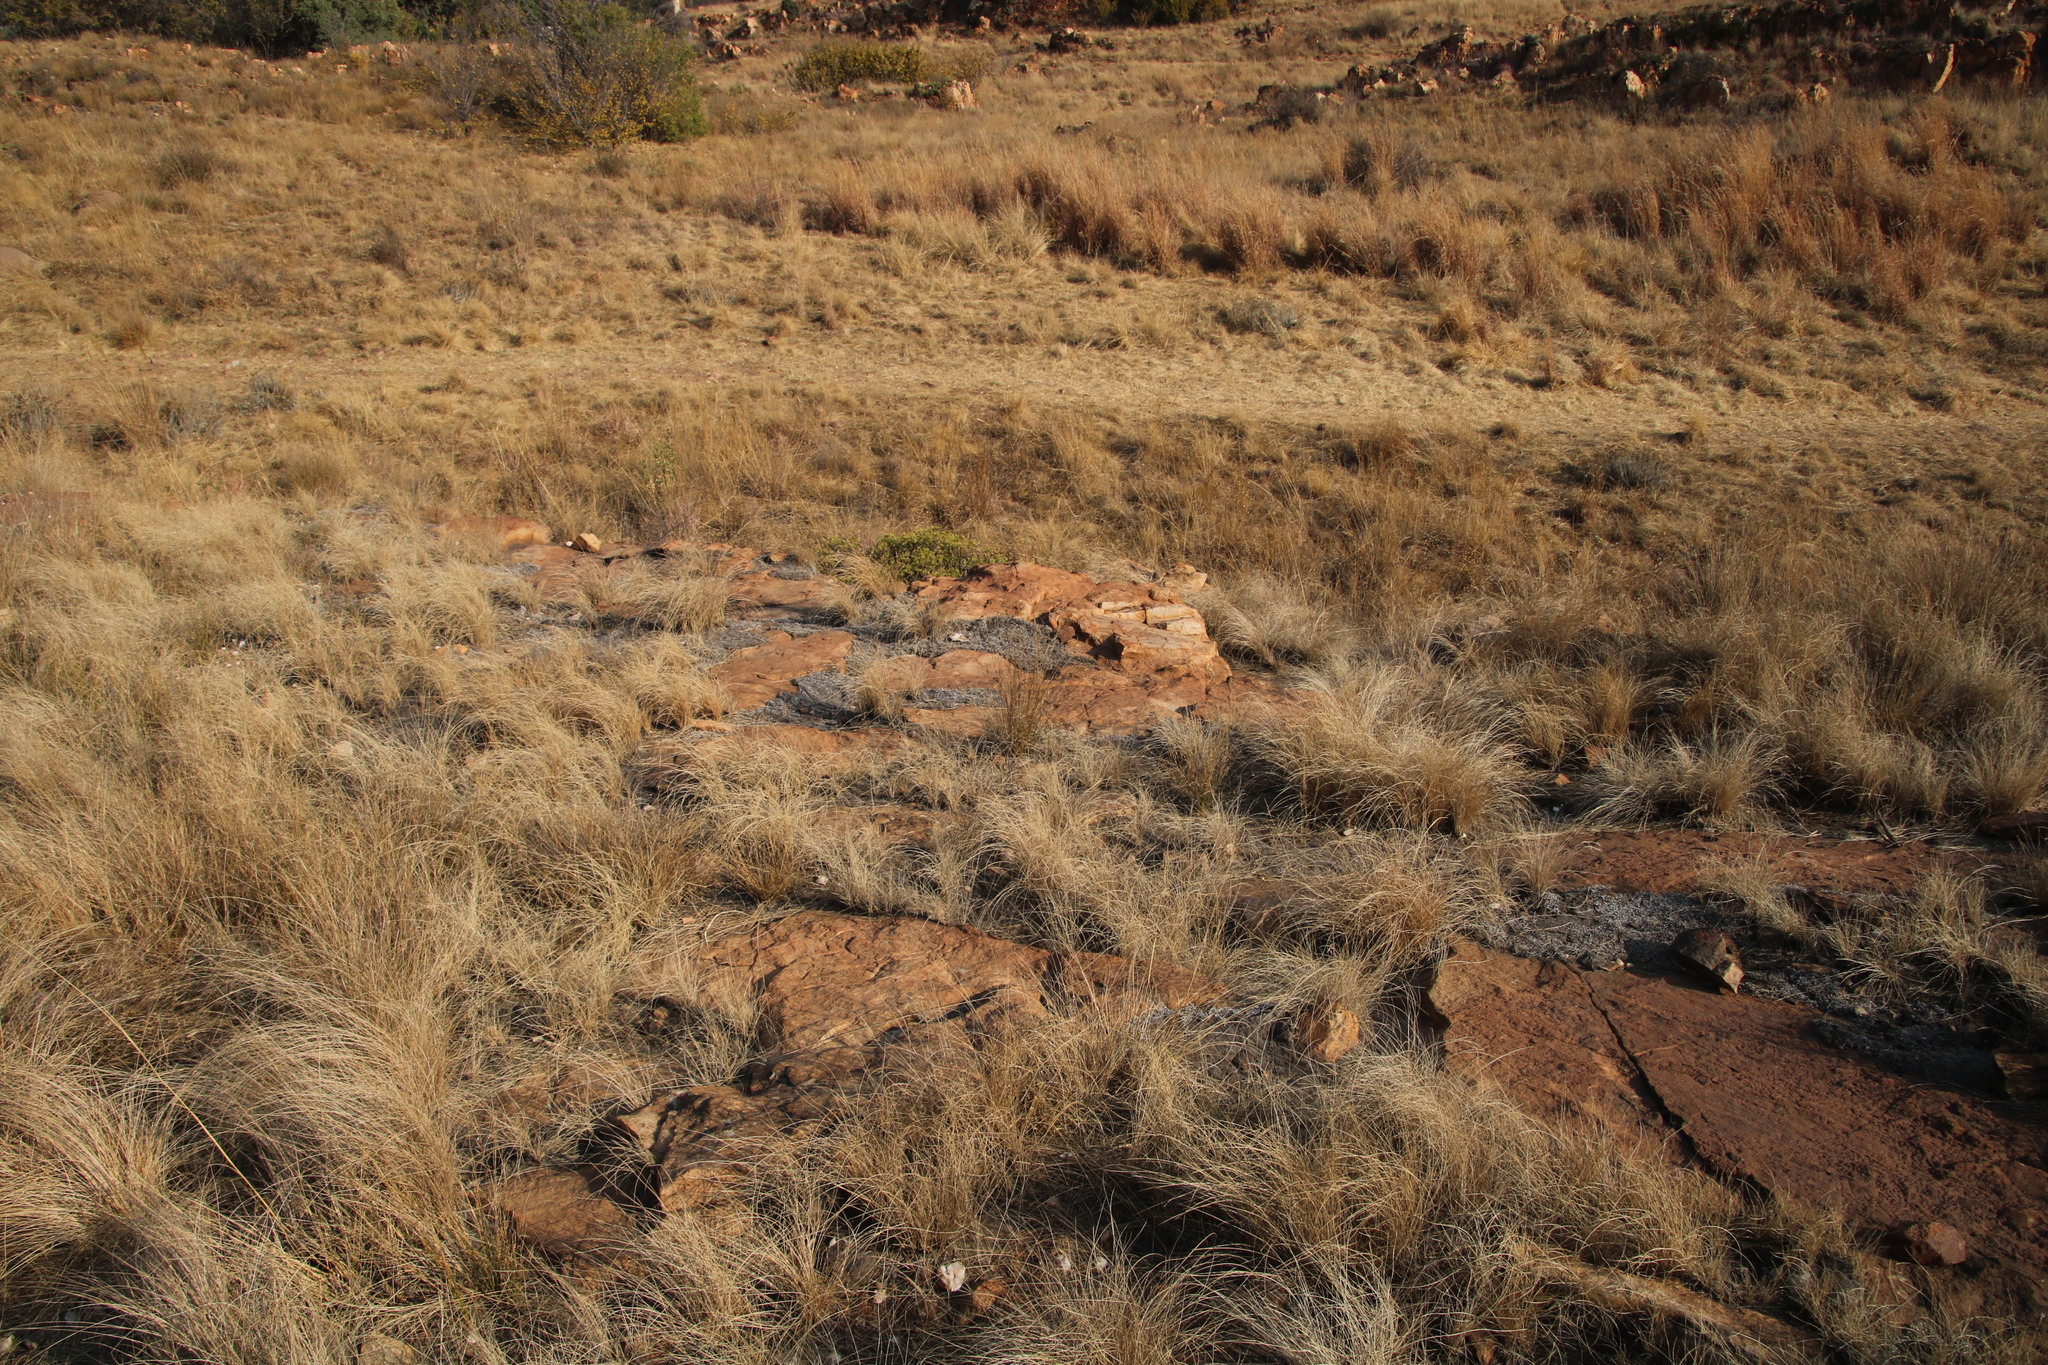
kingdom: Plantae
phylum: Tracheophyta
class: Lycopodiopsida
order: Selaginellales
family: Selaginellaceae
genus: Selaginella
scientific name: Selaginella dregei
